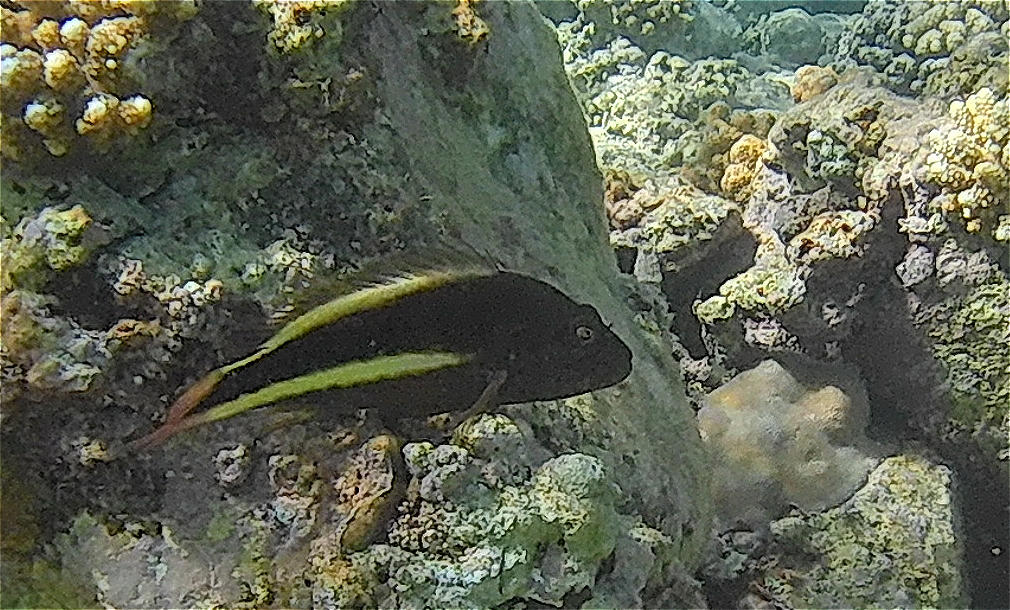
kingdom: Animalia
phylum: Chordata
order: Perciformes
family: Cirrhitidae
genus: Paracirrhites
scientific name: Paracirrhites forsteri
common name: Freckled hawkfish
